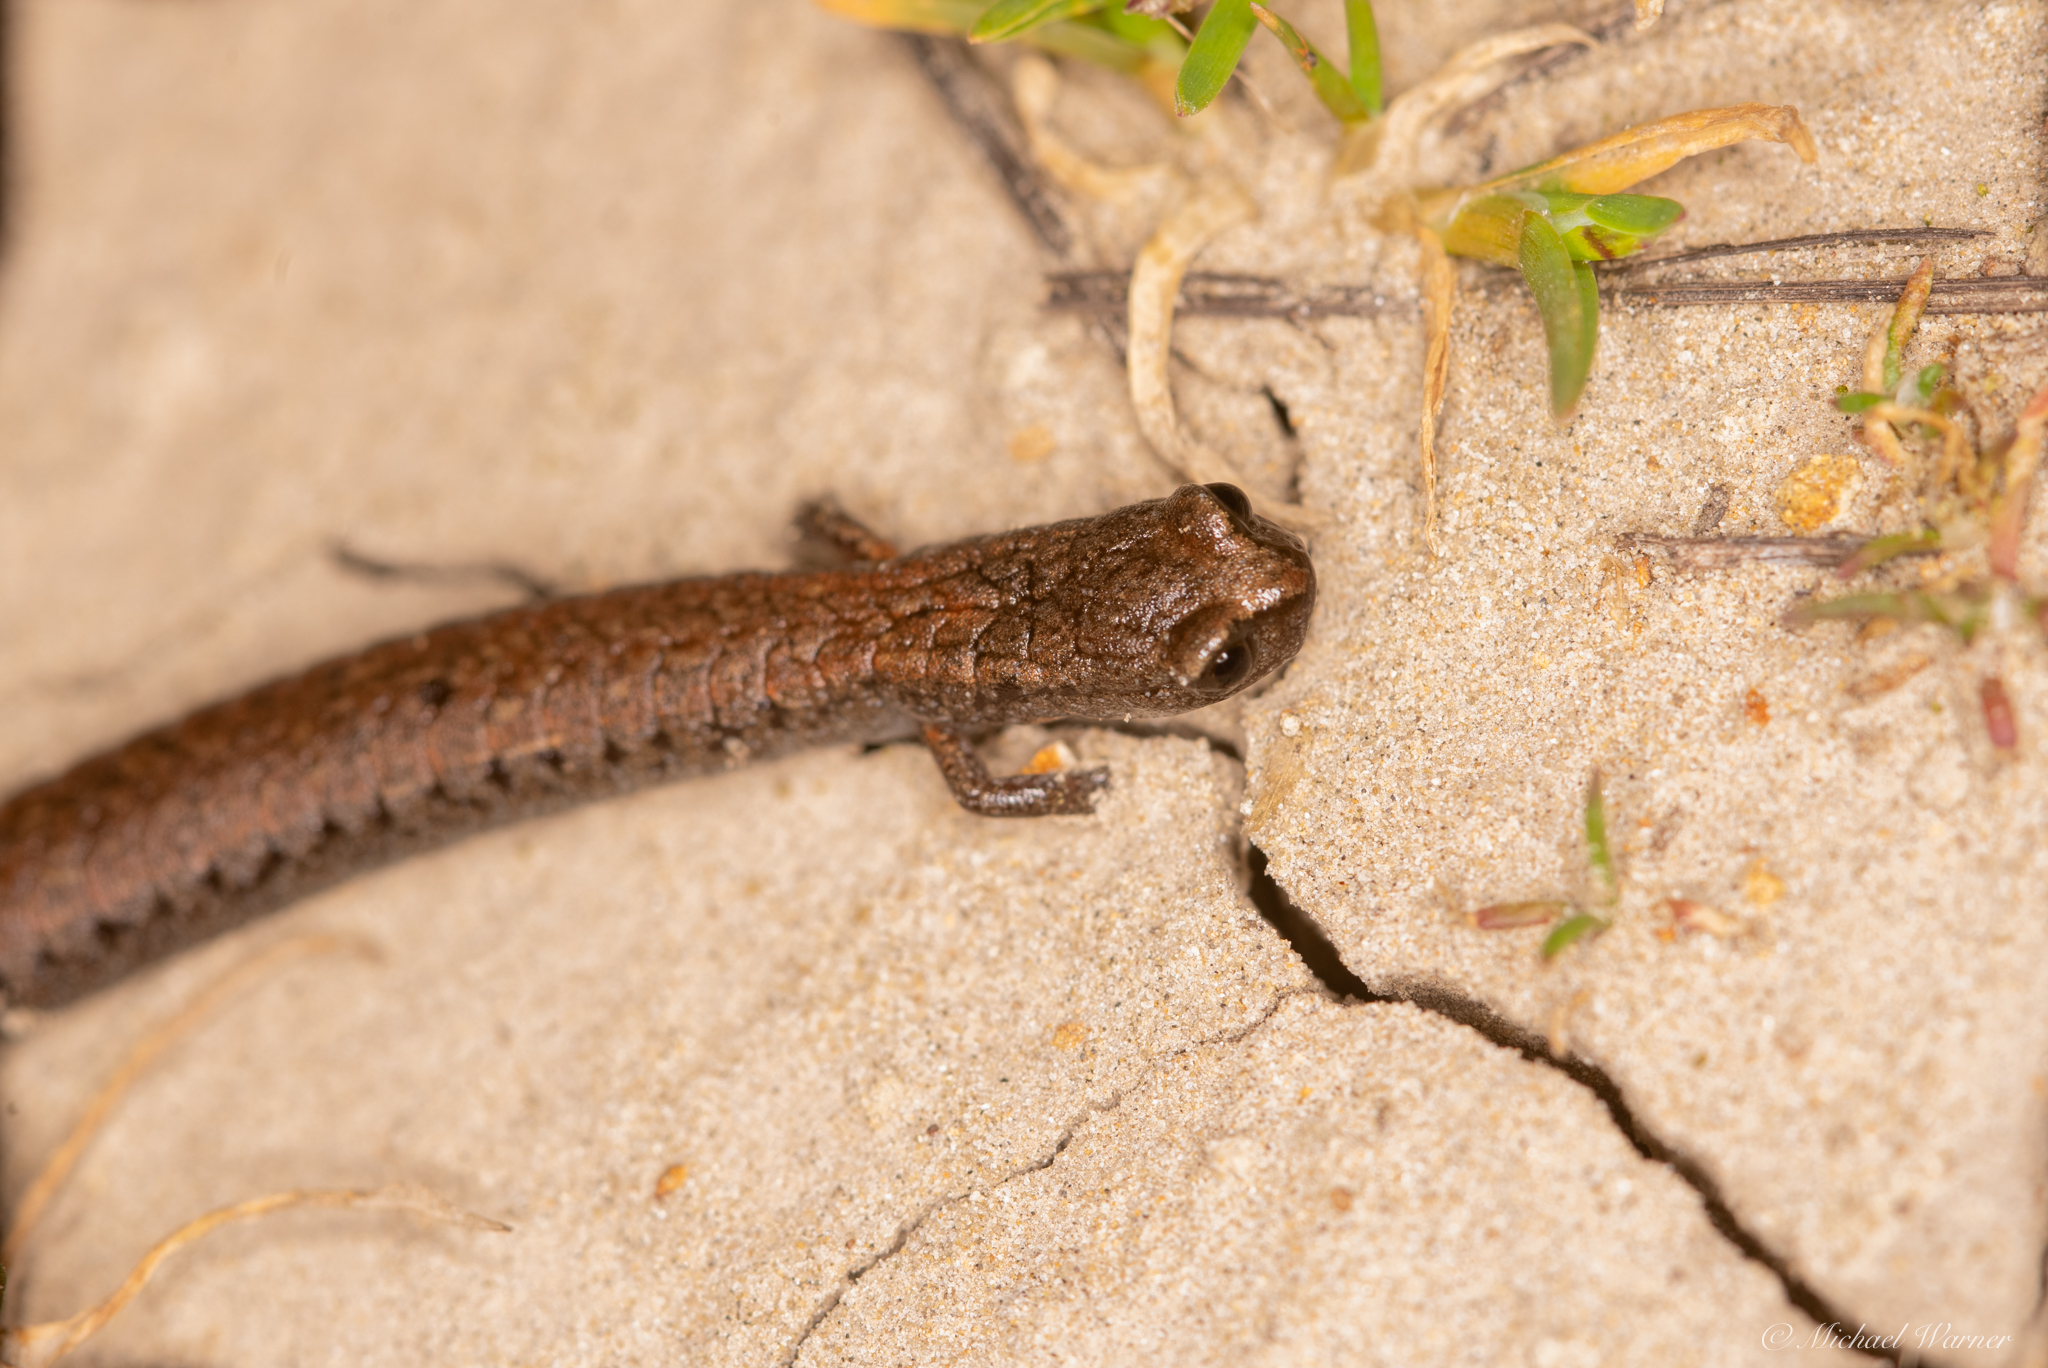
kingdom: Animalia
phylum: Chordata
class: Amphibia
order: Caudata
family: Plethodontidae
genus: Batrachoseps
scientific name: Batrachoseps attenuatus
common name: California slender salamander
